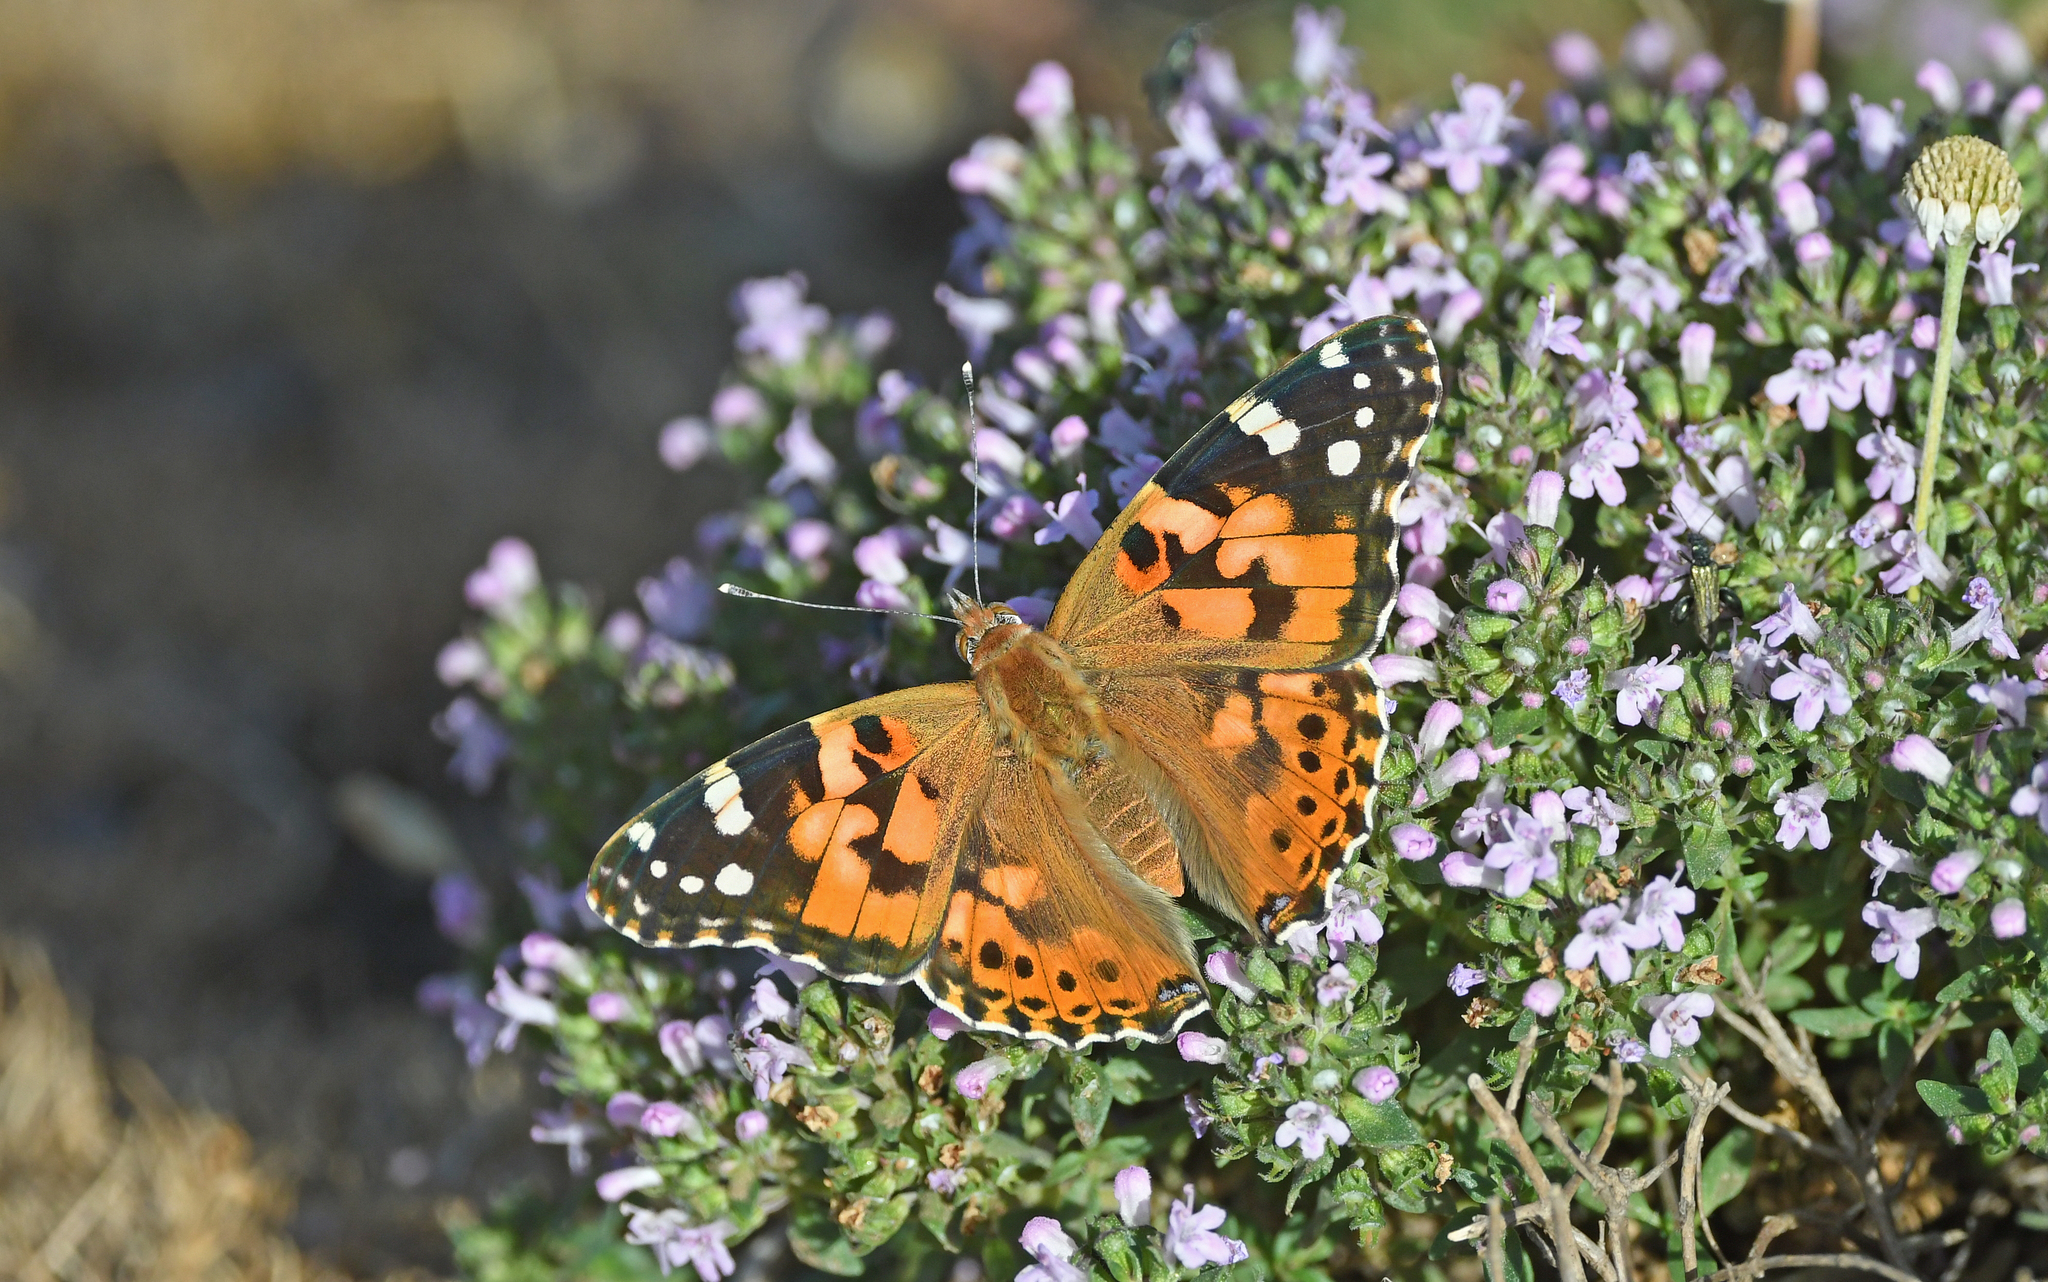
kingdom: Animalia
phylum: Arthropoda
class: Insecta
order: Lepidoptera
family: Nymphalidae
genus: Vanessa
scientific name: Vanessa cardui
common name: Painted lady
